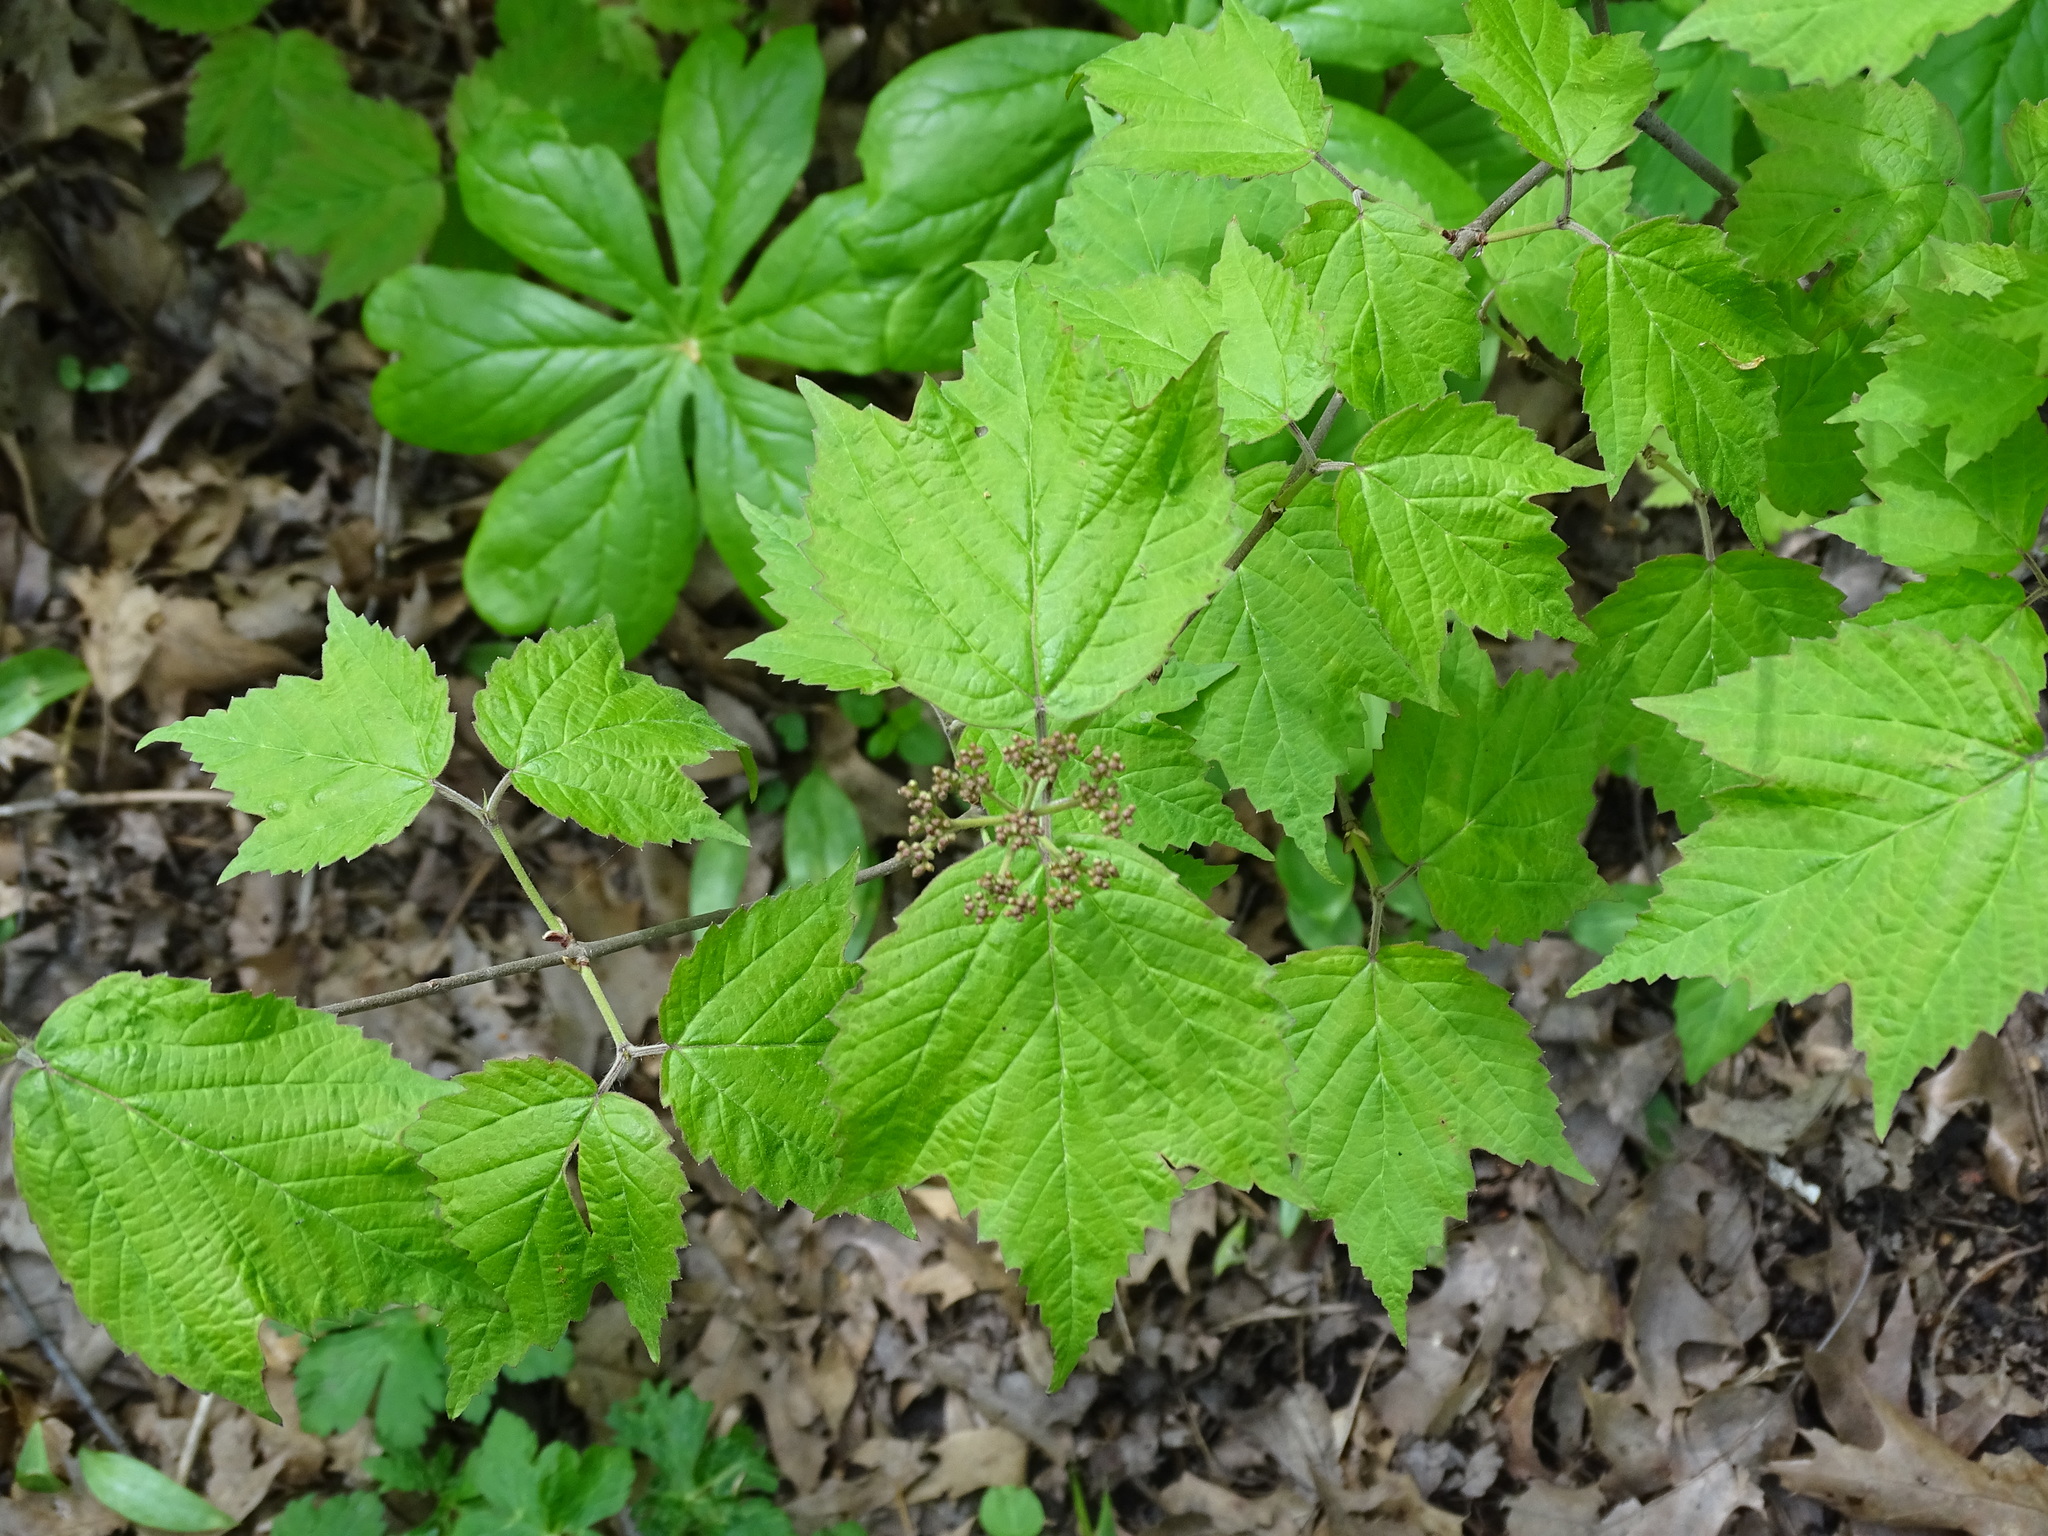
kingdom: Plantae
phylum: Tracheophyta
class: Magnoliopsida
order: Dipsacales
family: Viburnaceae
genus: Viburnum
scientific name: Viburnum acerifolium
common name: Dockmackie
